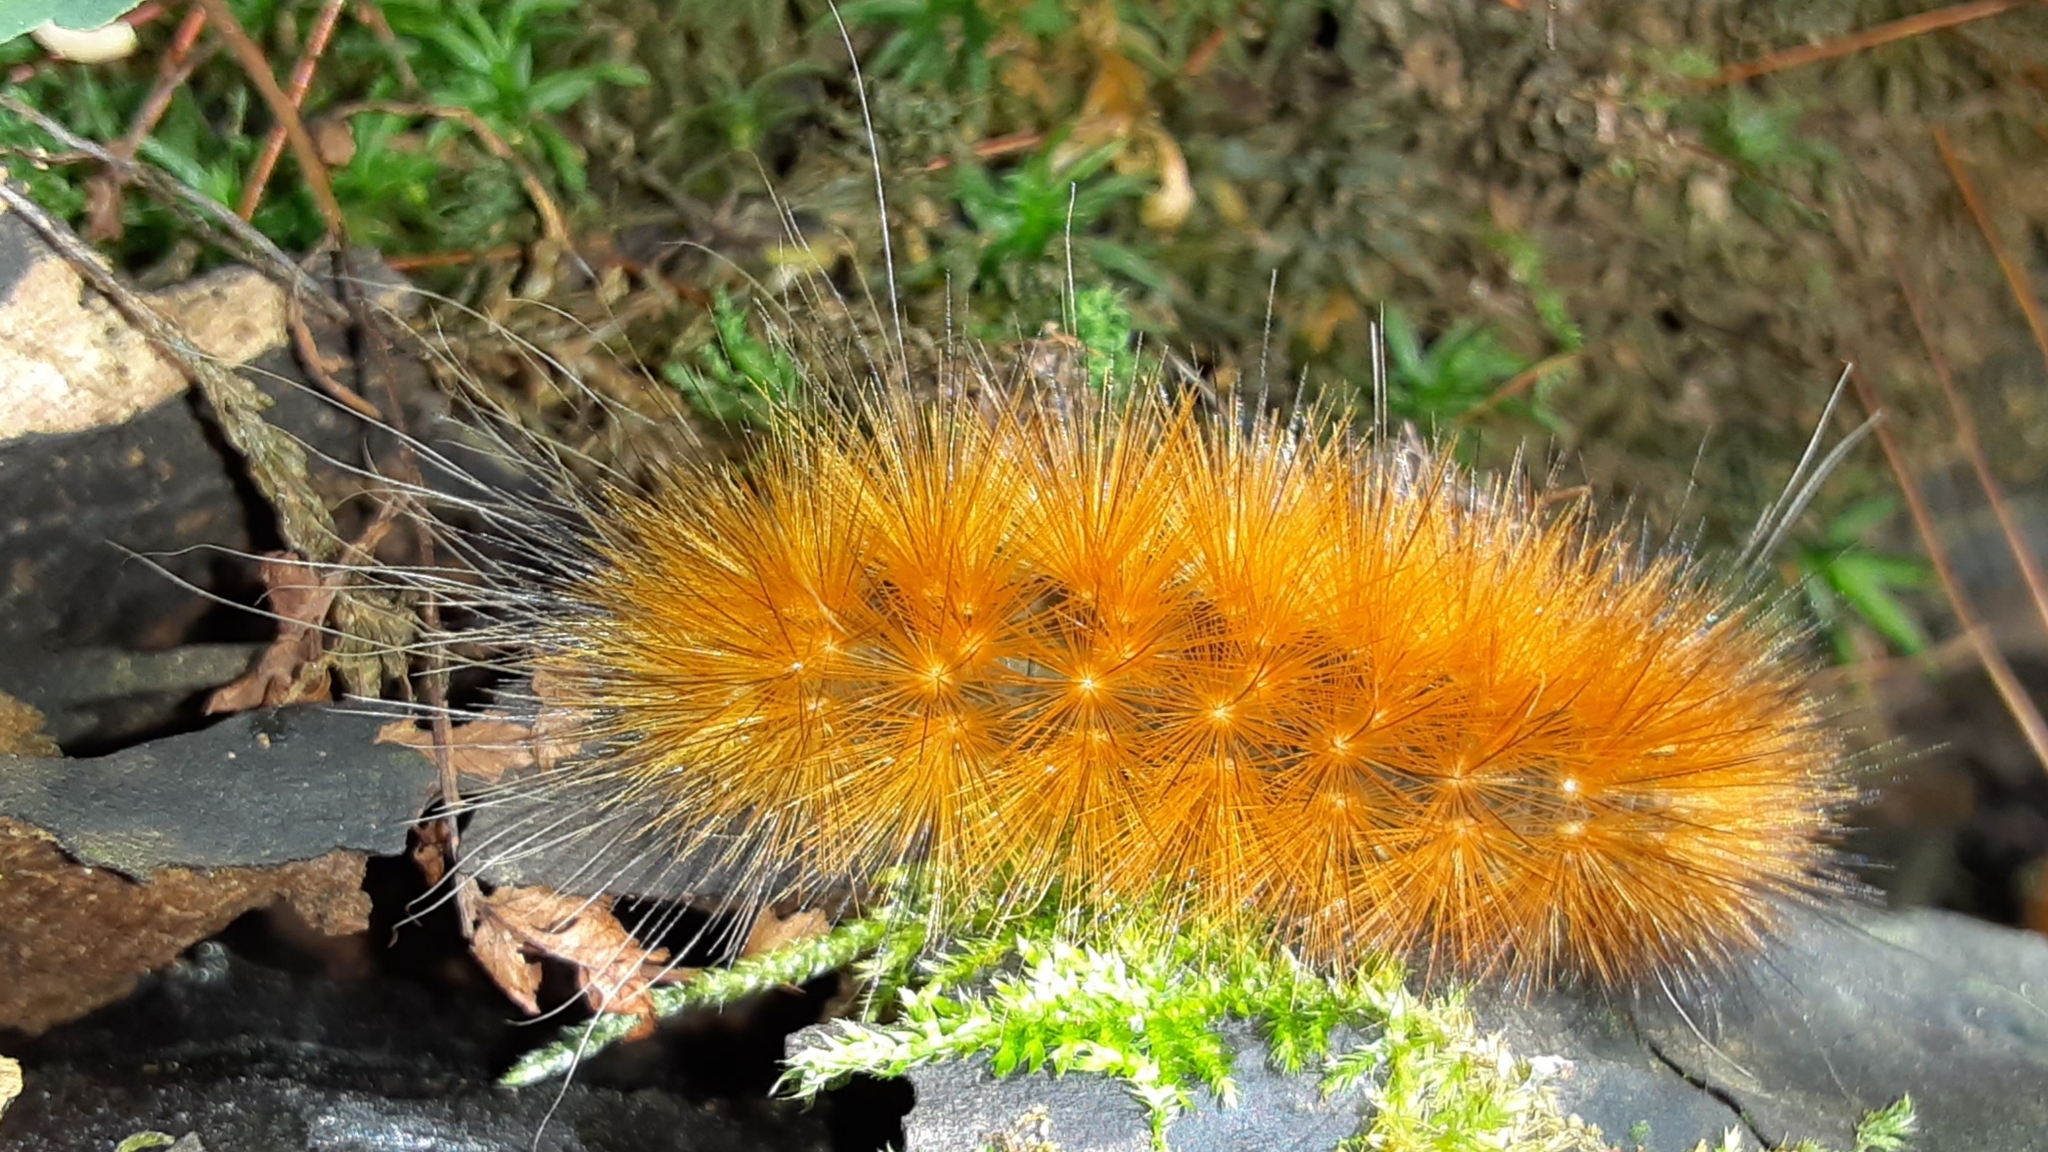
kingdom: Animalia
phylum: Arthropoda
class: Insecta
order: Lepidoptera
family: Erebidae
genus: Spilosoma
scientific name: Spilosoma virginica
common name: Virginia tiger moth
